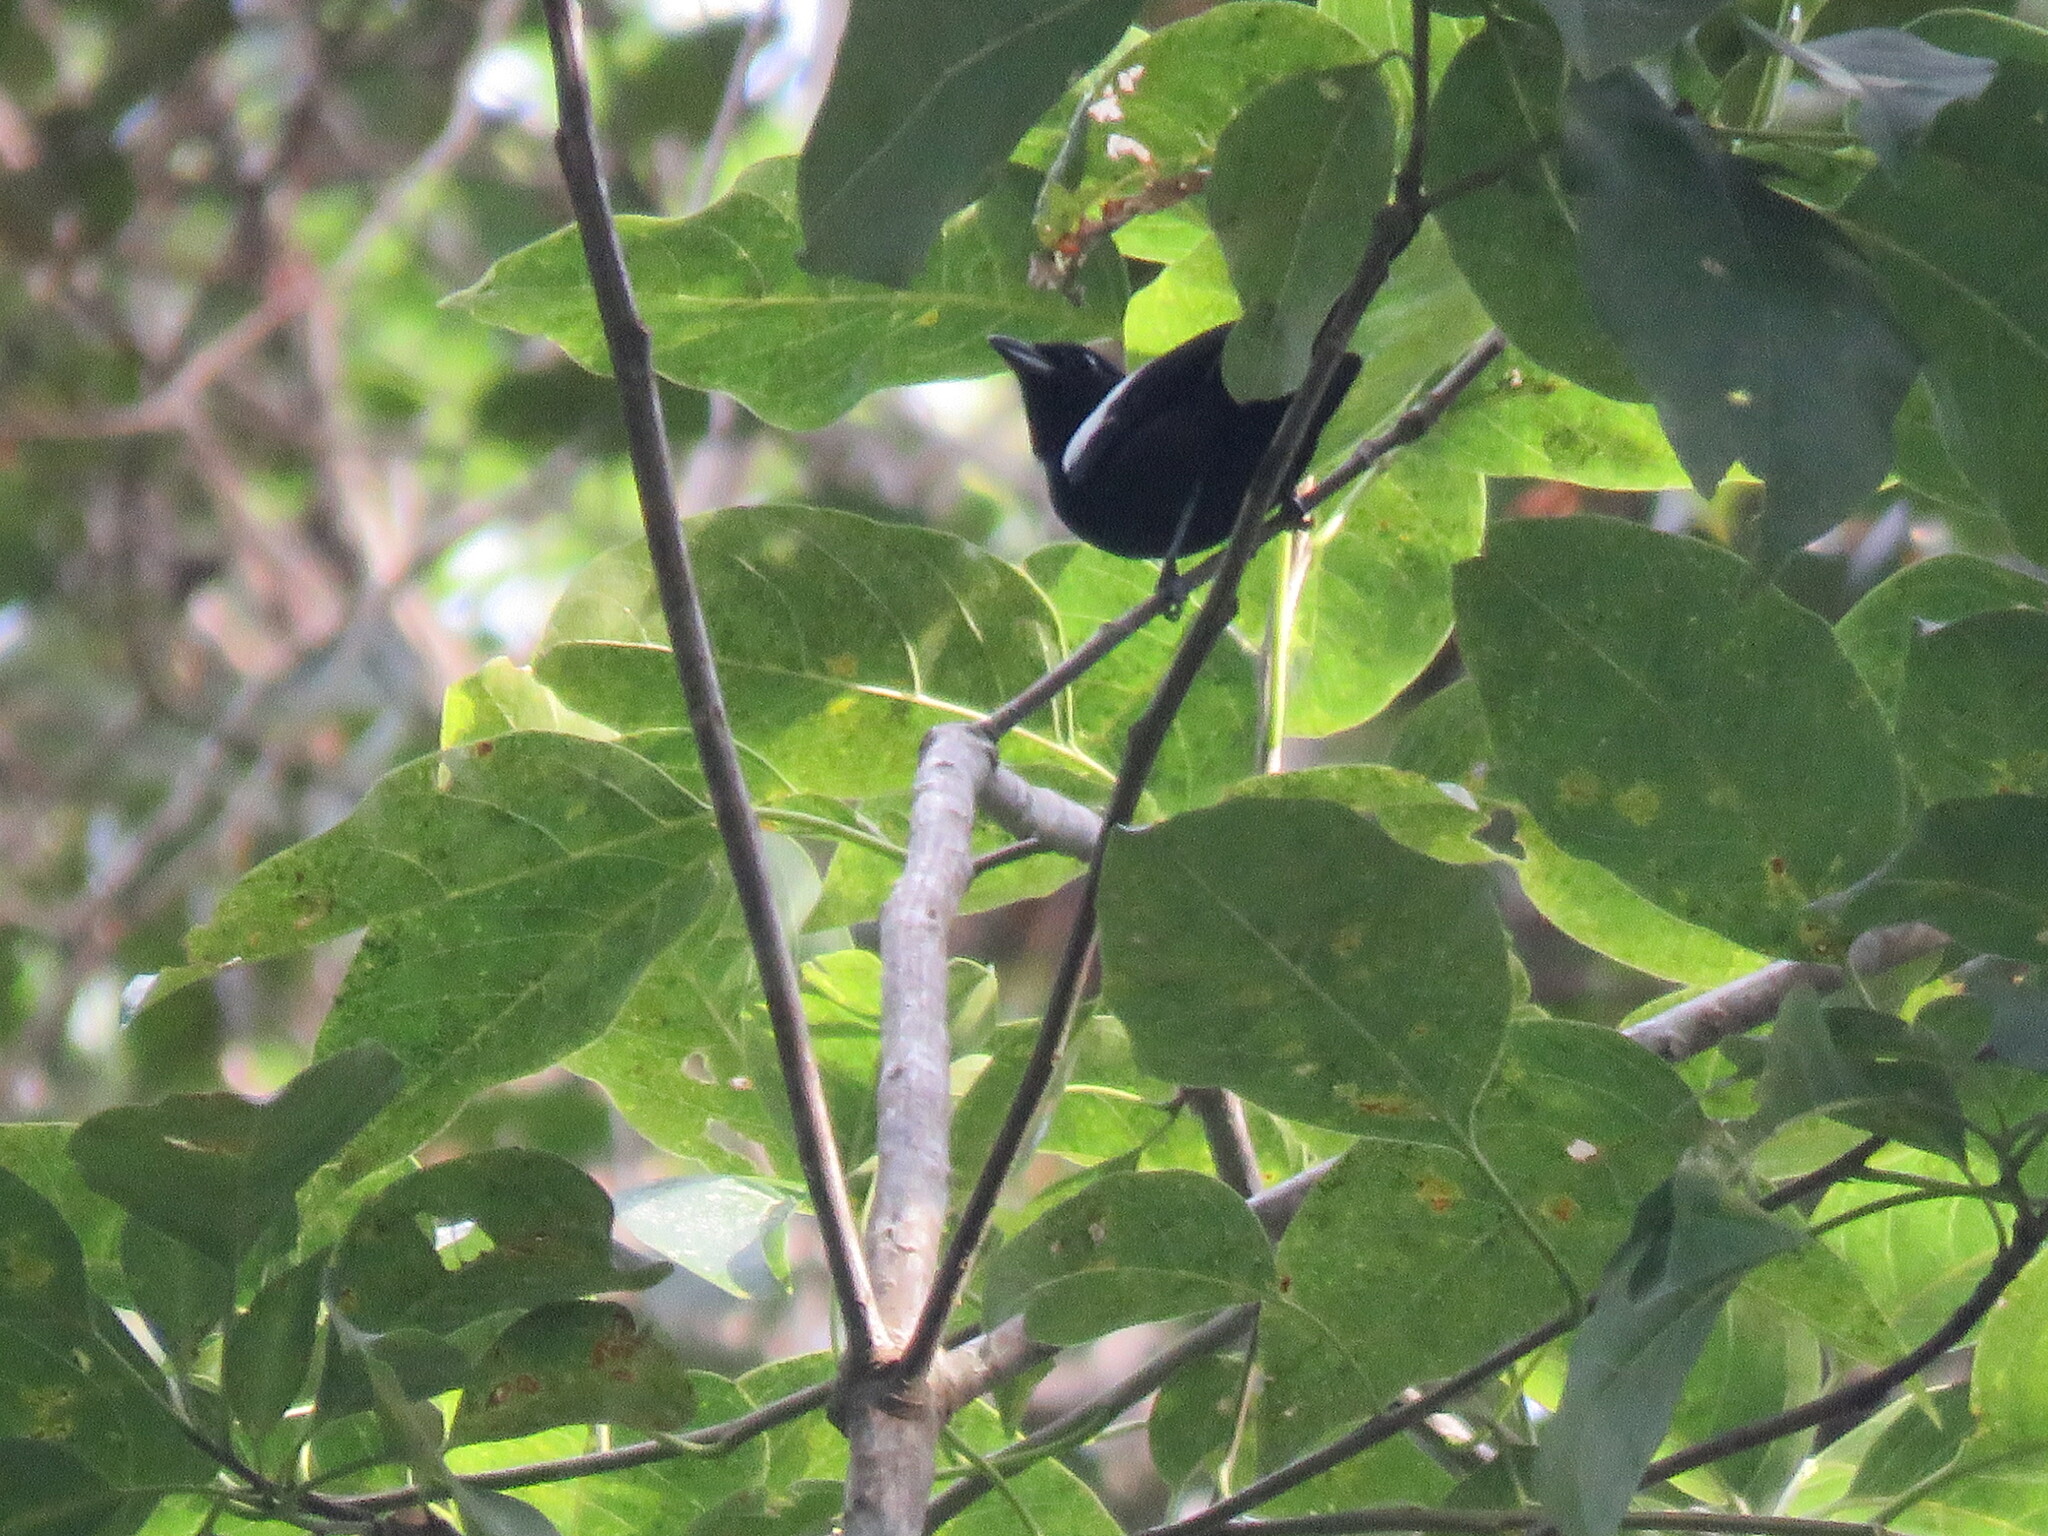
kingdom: Animalia
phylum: Chordata
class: Aves
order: Passeriformes
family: Thraupidae
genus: Loriotus
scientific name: Loriotus luctuosus
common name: White-shouldered tanager
